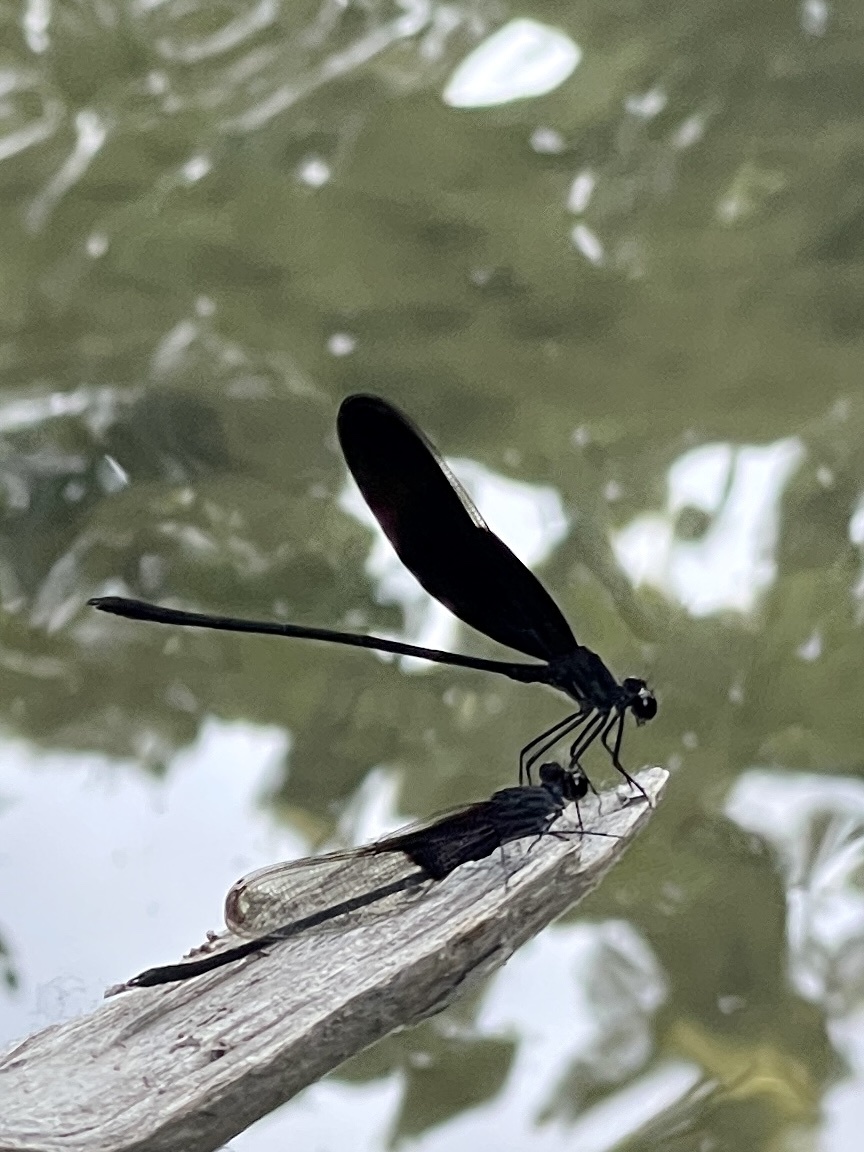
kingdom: Animalia
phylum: Arthropoda
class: Insecta
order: Odonata
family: Calopterygidae
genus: Hetaerina
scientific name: Hetaerina titia
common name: Smoky rubyspot
